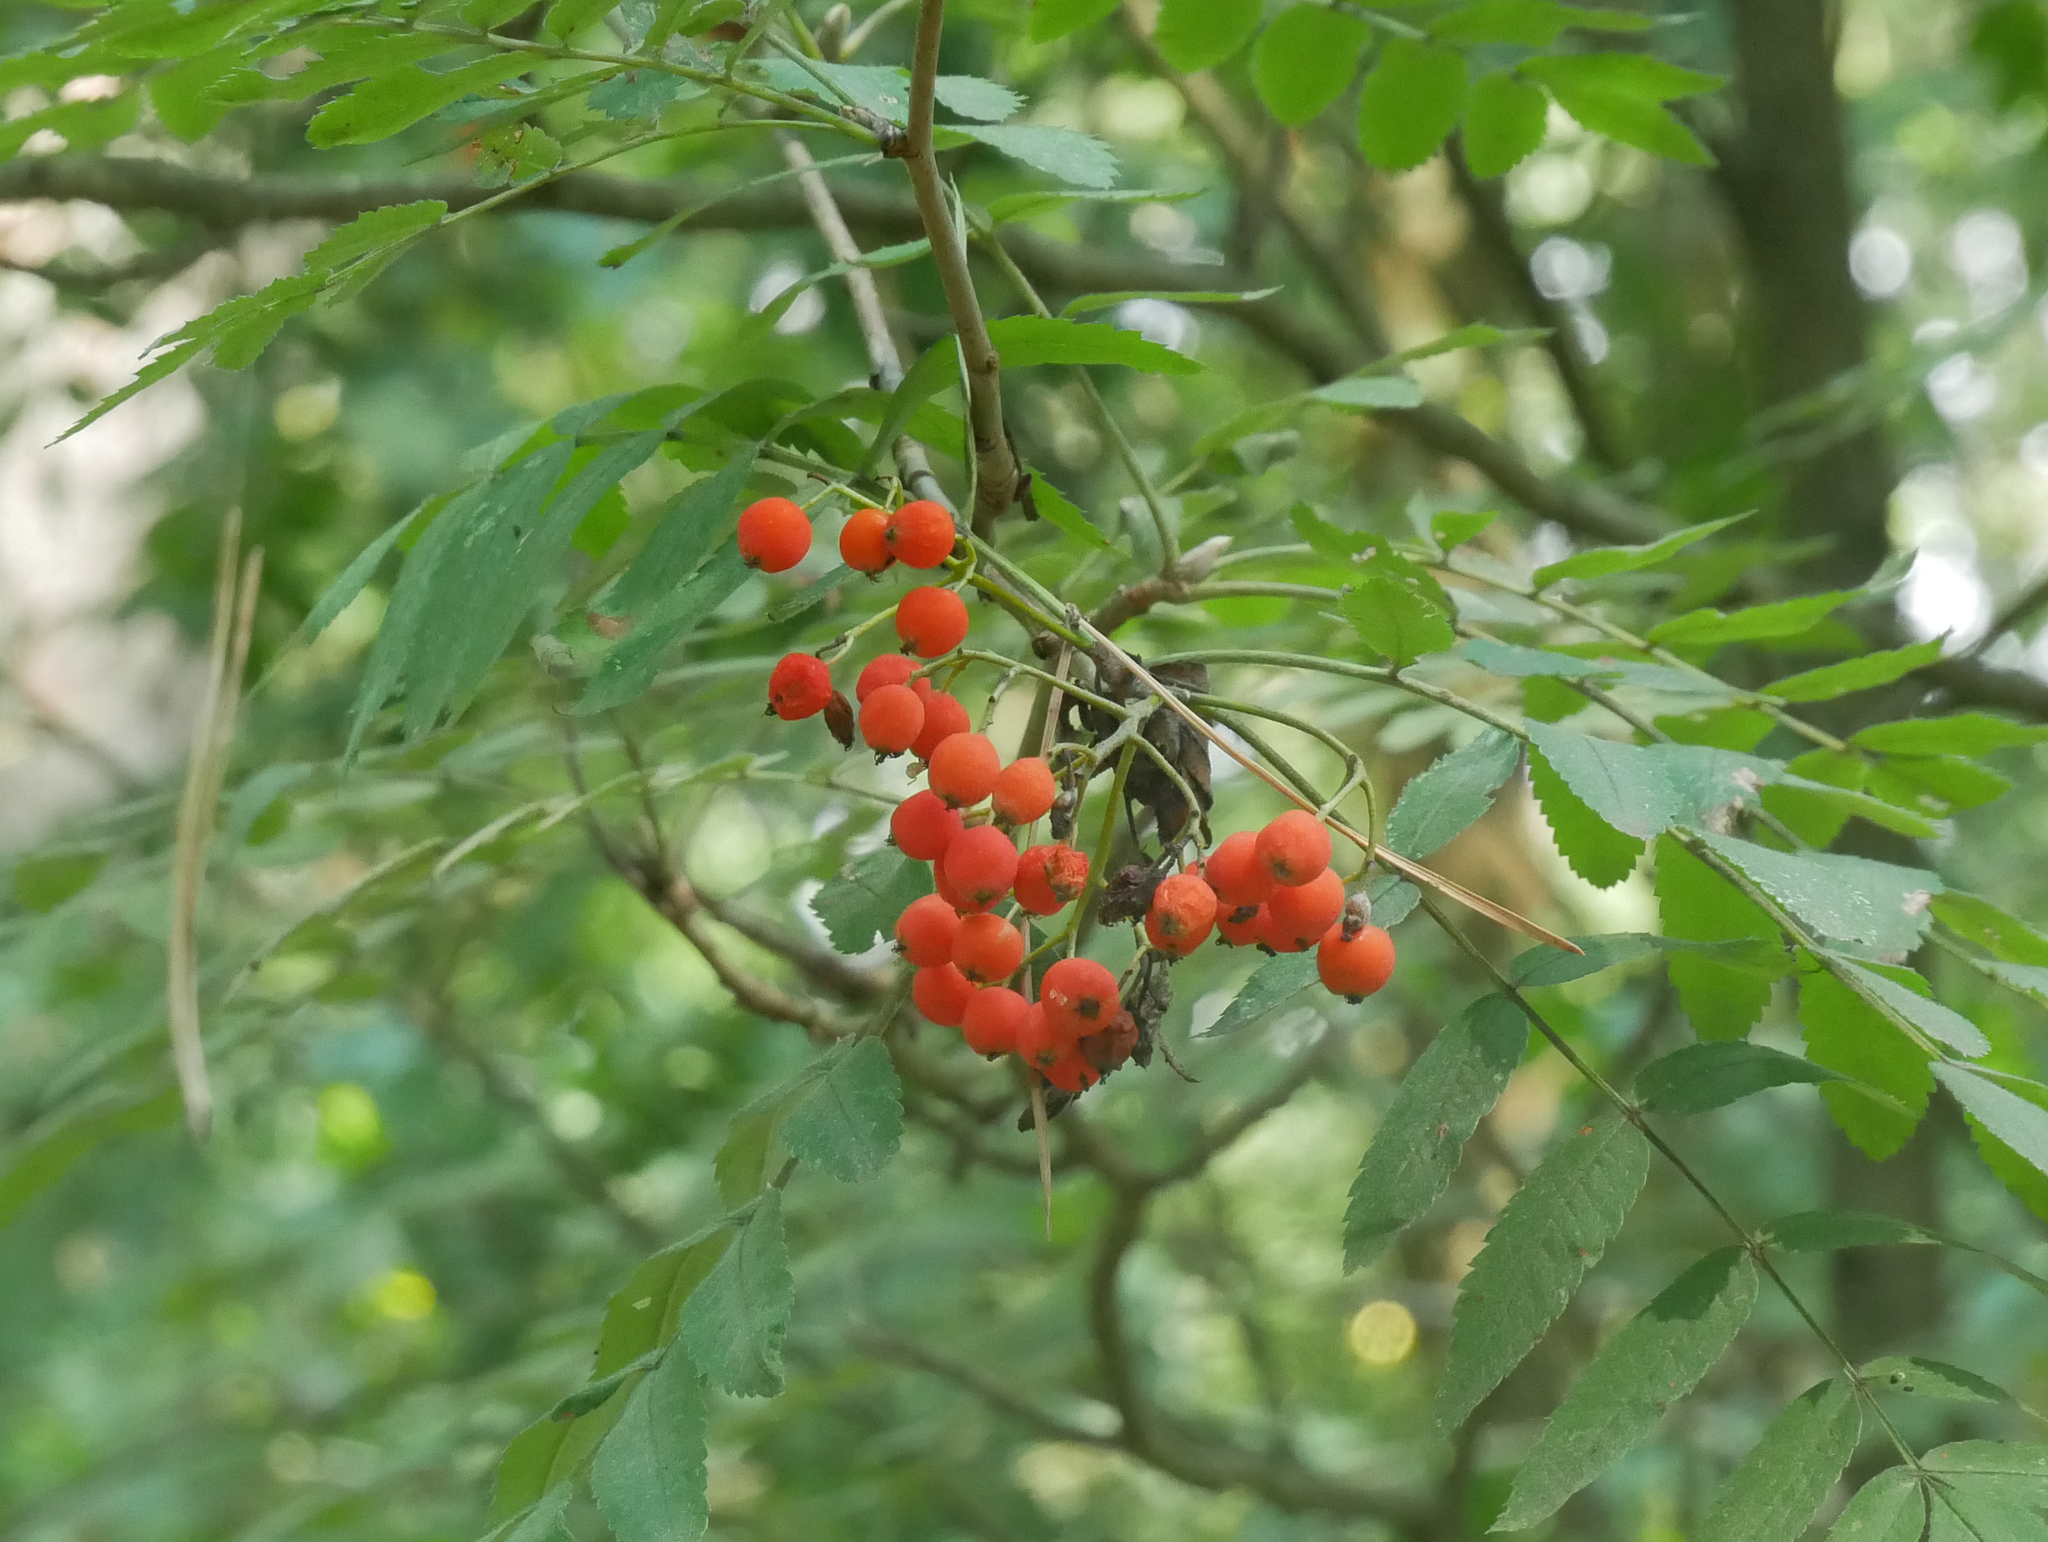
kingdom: Plantae
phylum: Tracheophyta
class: Magnoliopsida
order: Rosales
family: Rosaceae
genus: Sorbus
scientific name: Sorbus aucuparia
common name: Rowan
